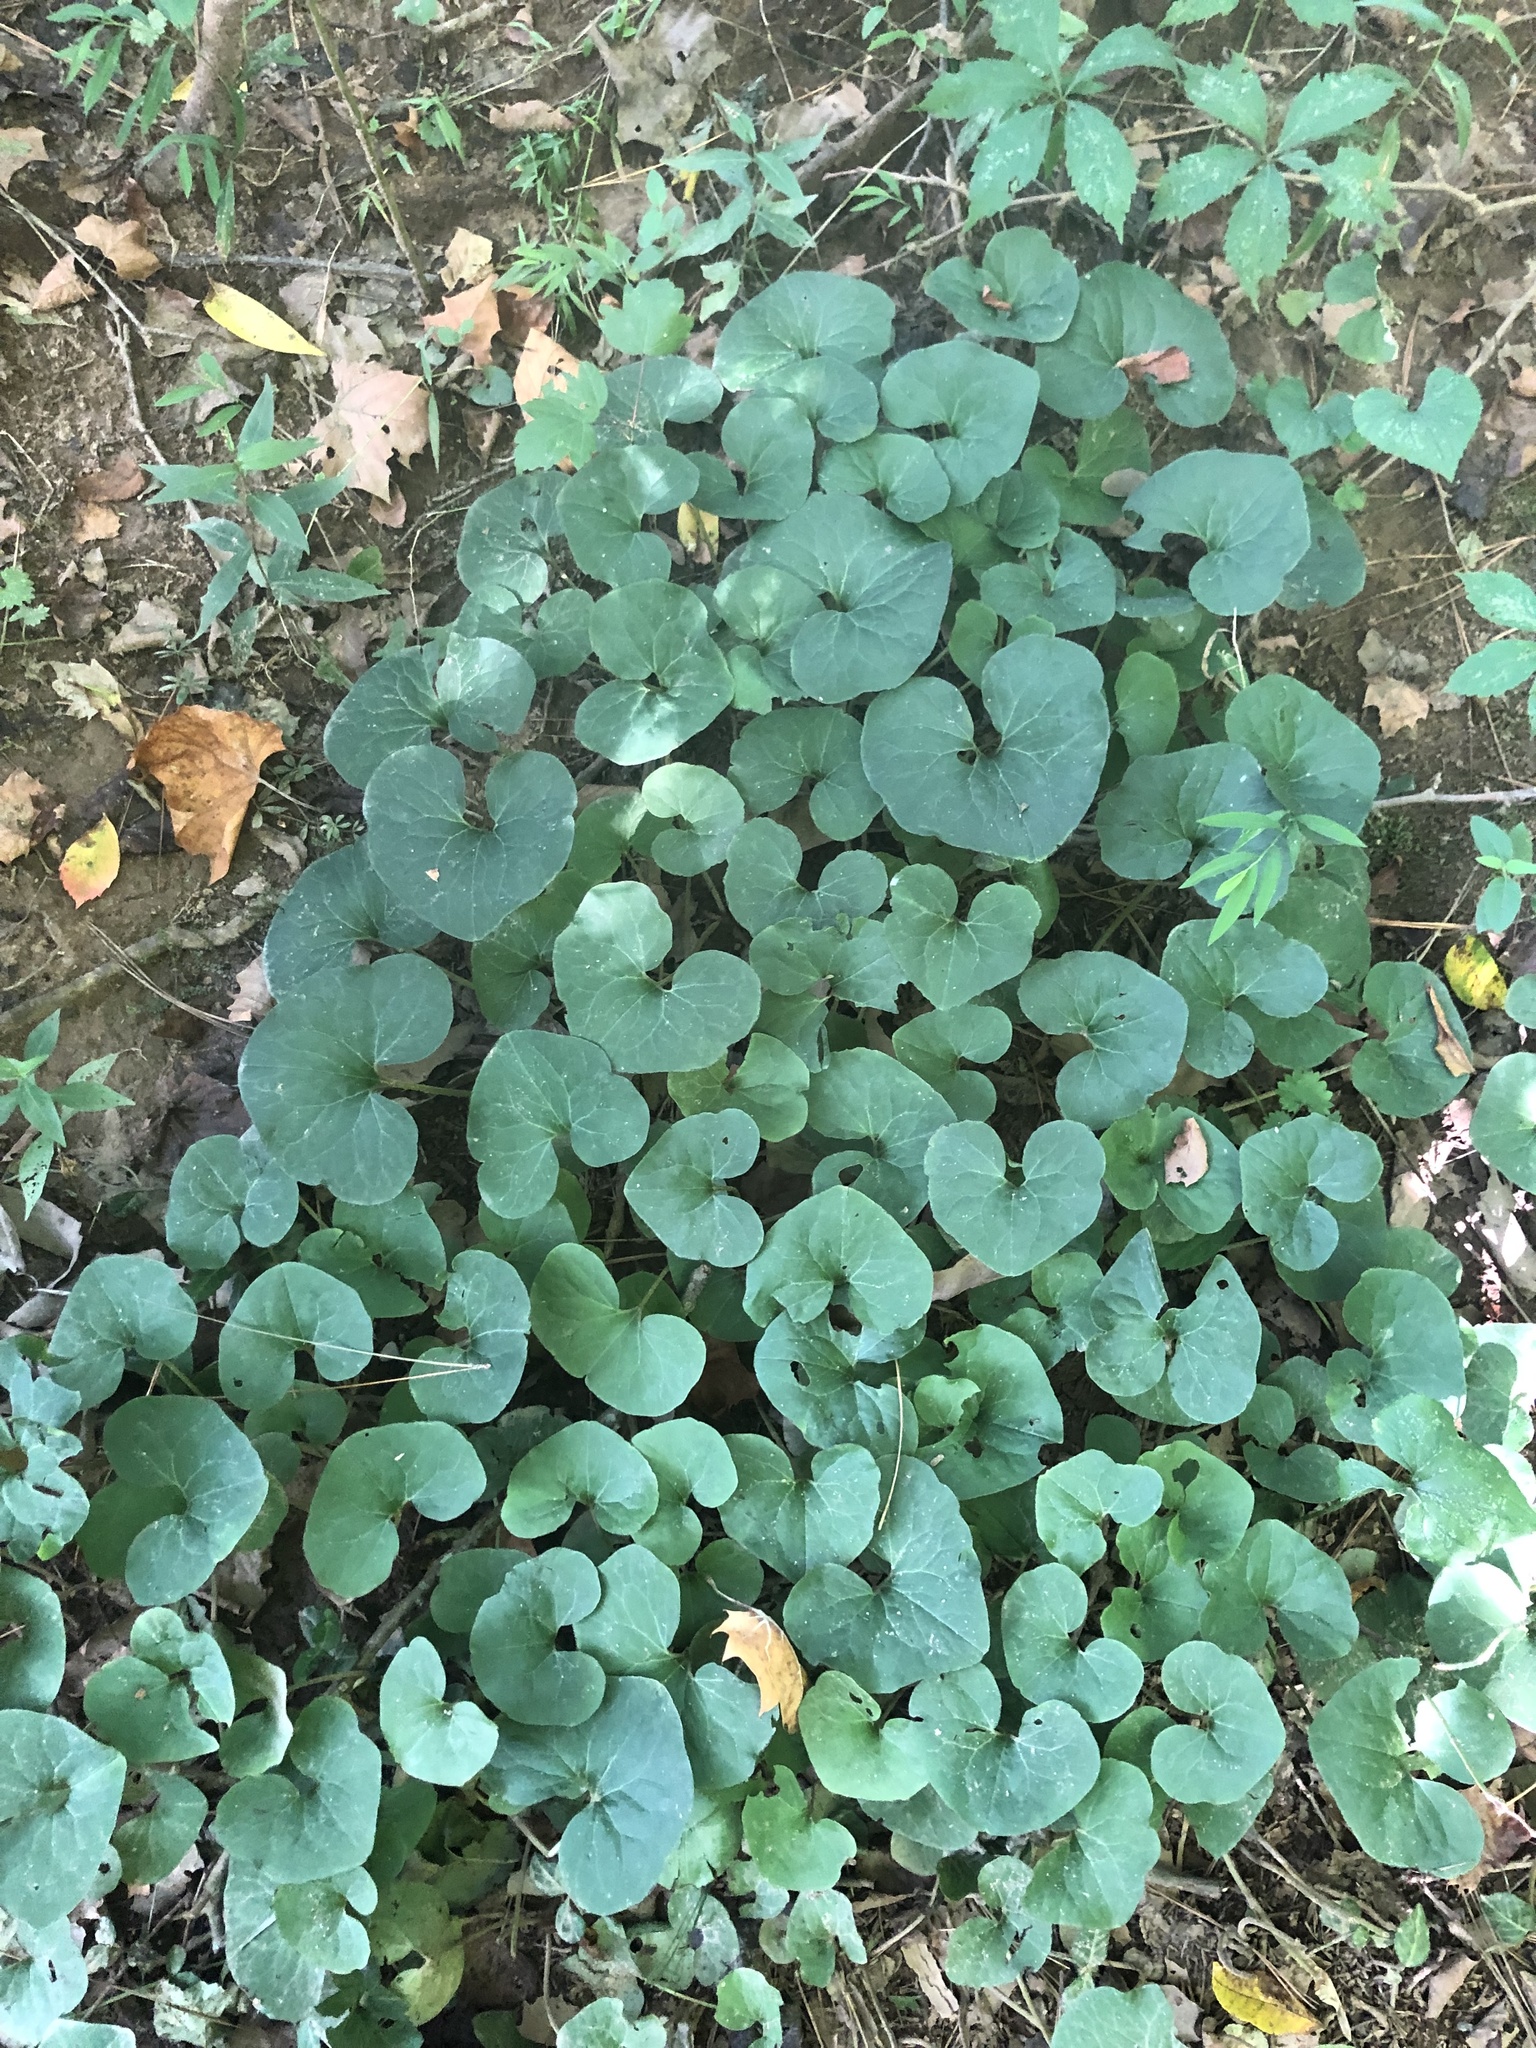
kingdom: Plantae
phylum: Tracheophyta
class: Magnoliopsida
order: Piperales
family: Aristolochiaceae
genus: Asarum
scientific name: Asarum canadense
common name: Wild ginger
